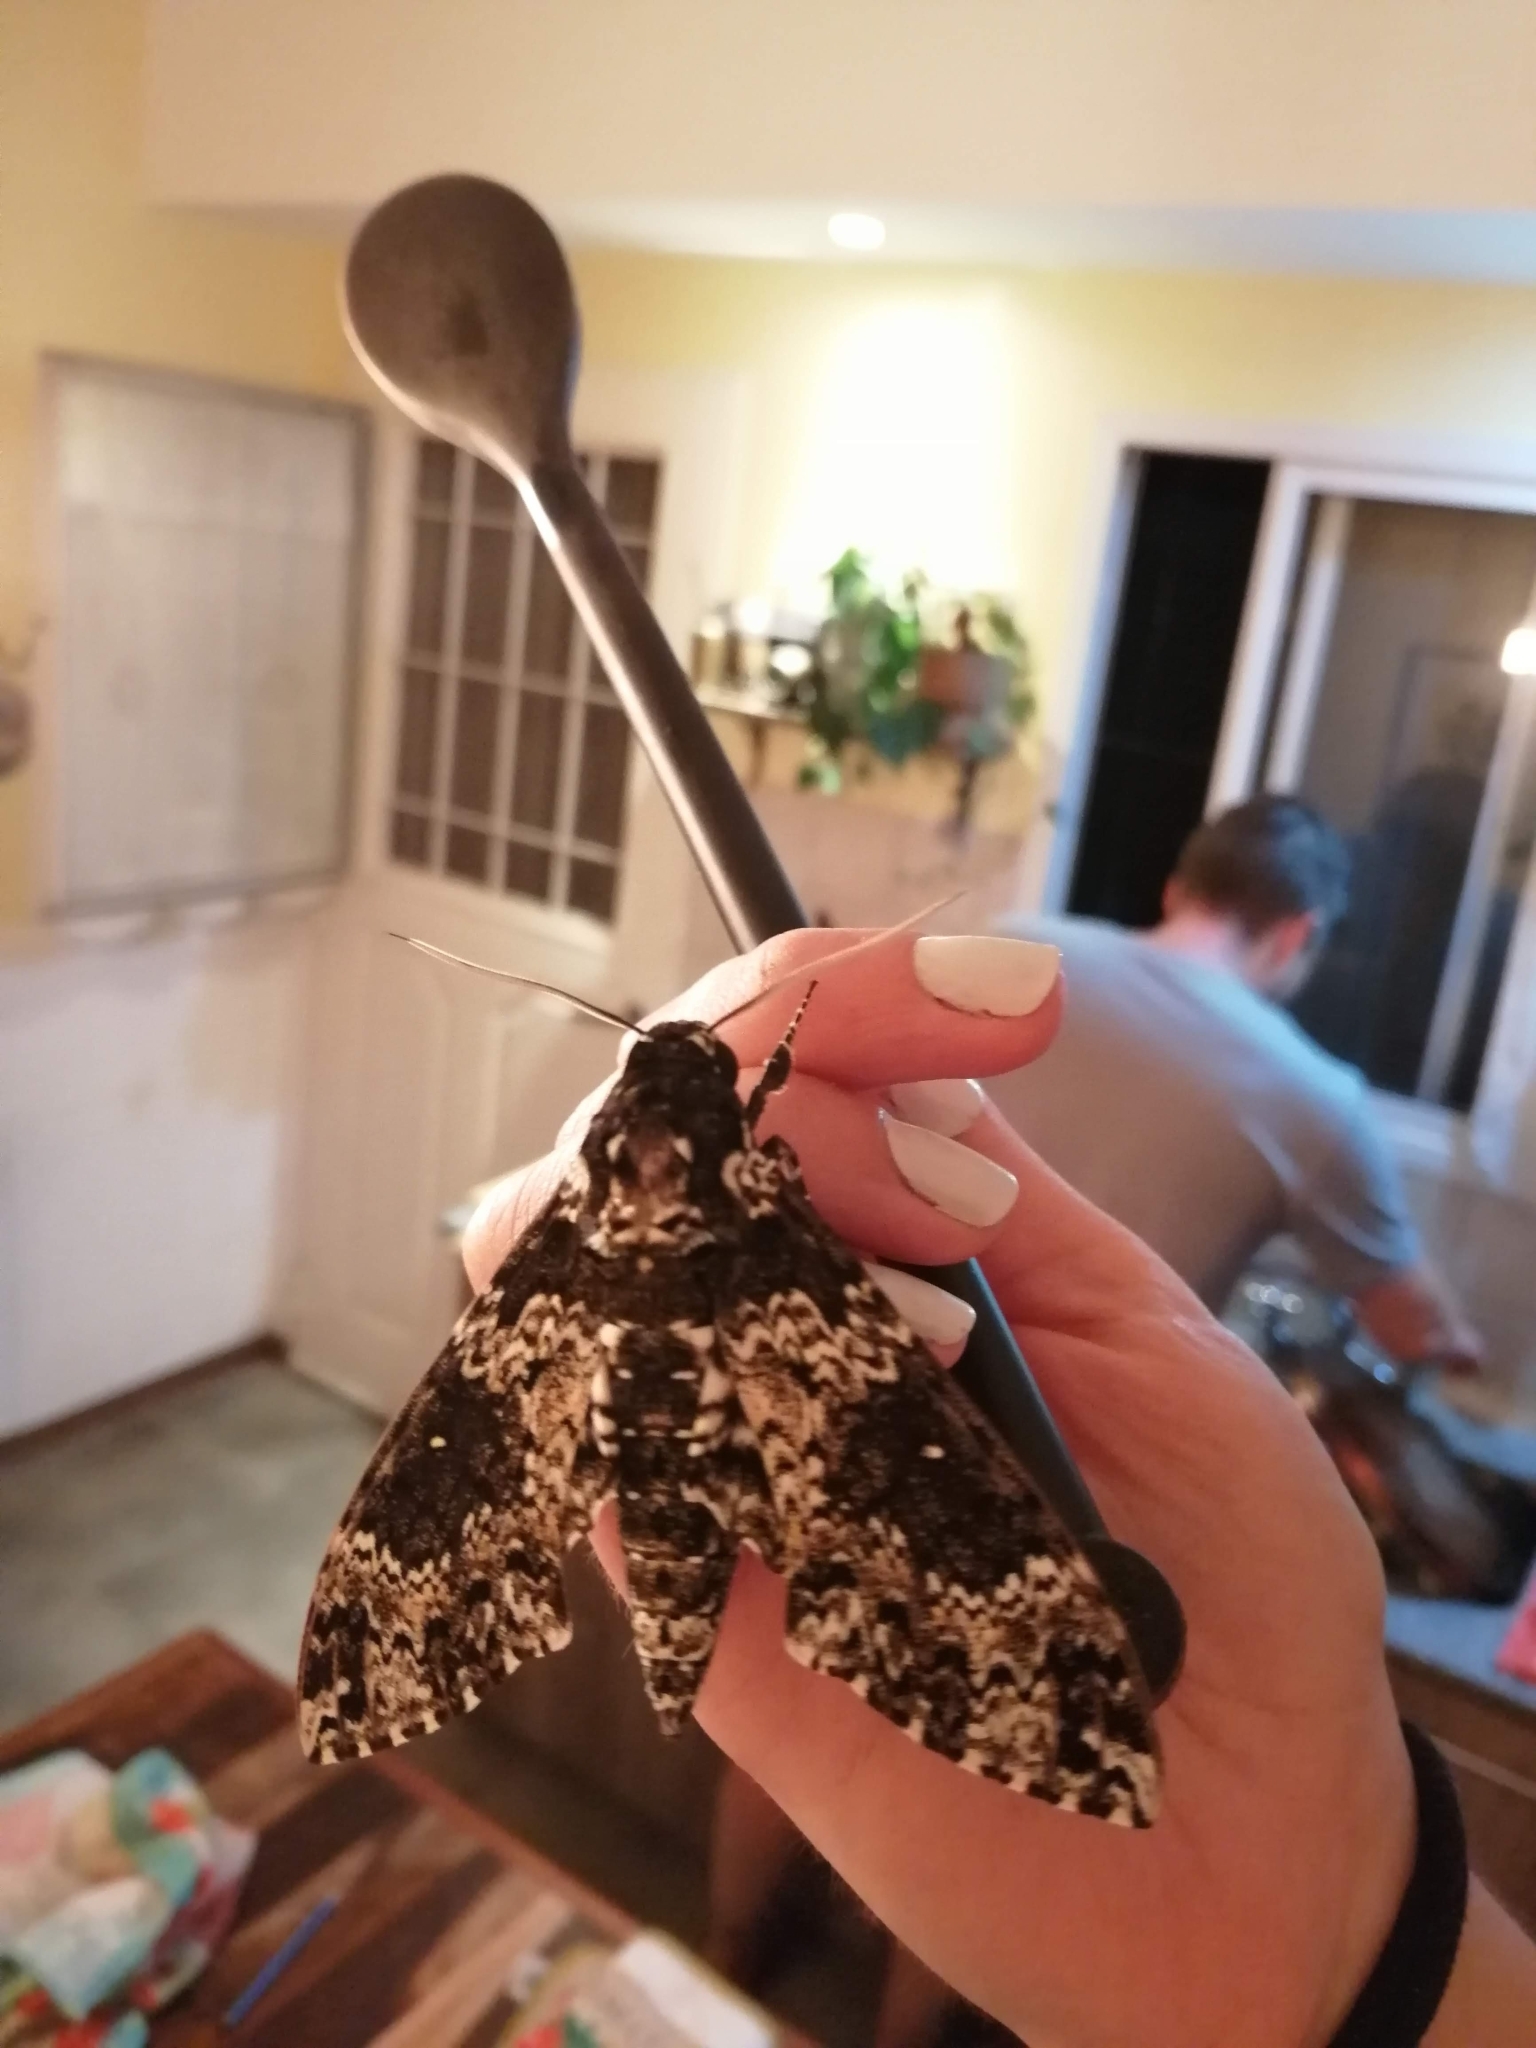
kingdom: Animalia
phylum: Arthropoda
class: Insecta
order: Lepidoptera
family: Sphingidae
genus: Manduca
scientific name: Manduca rustica
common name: Rustic sphinx
